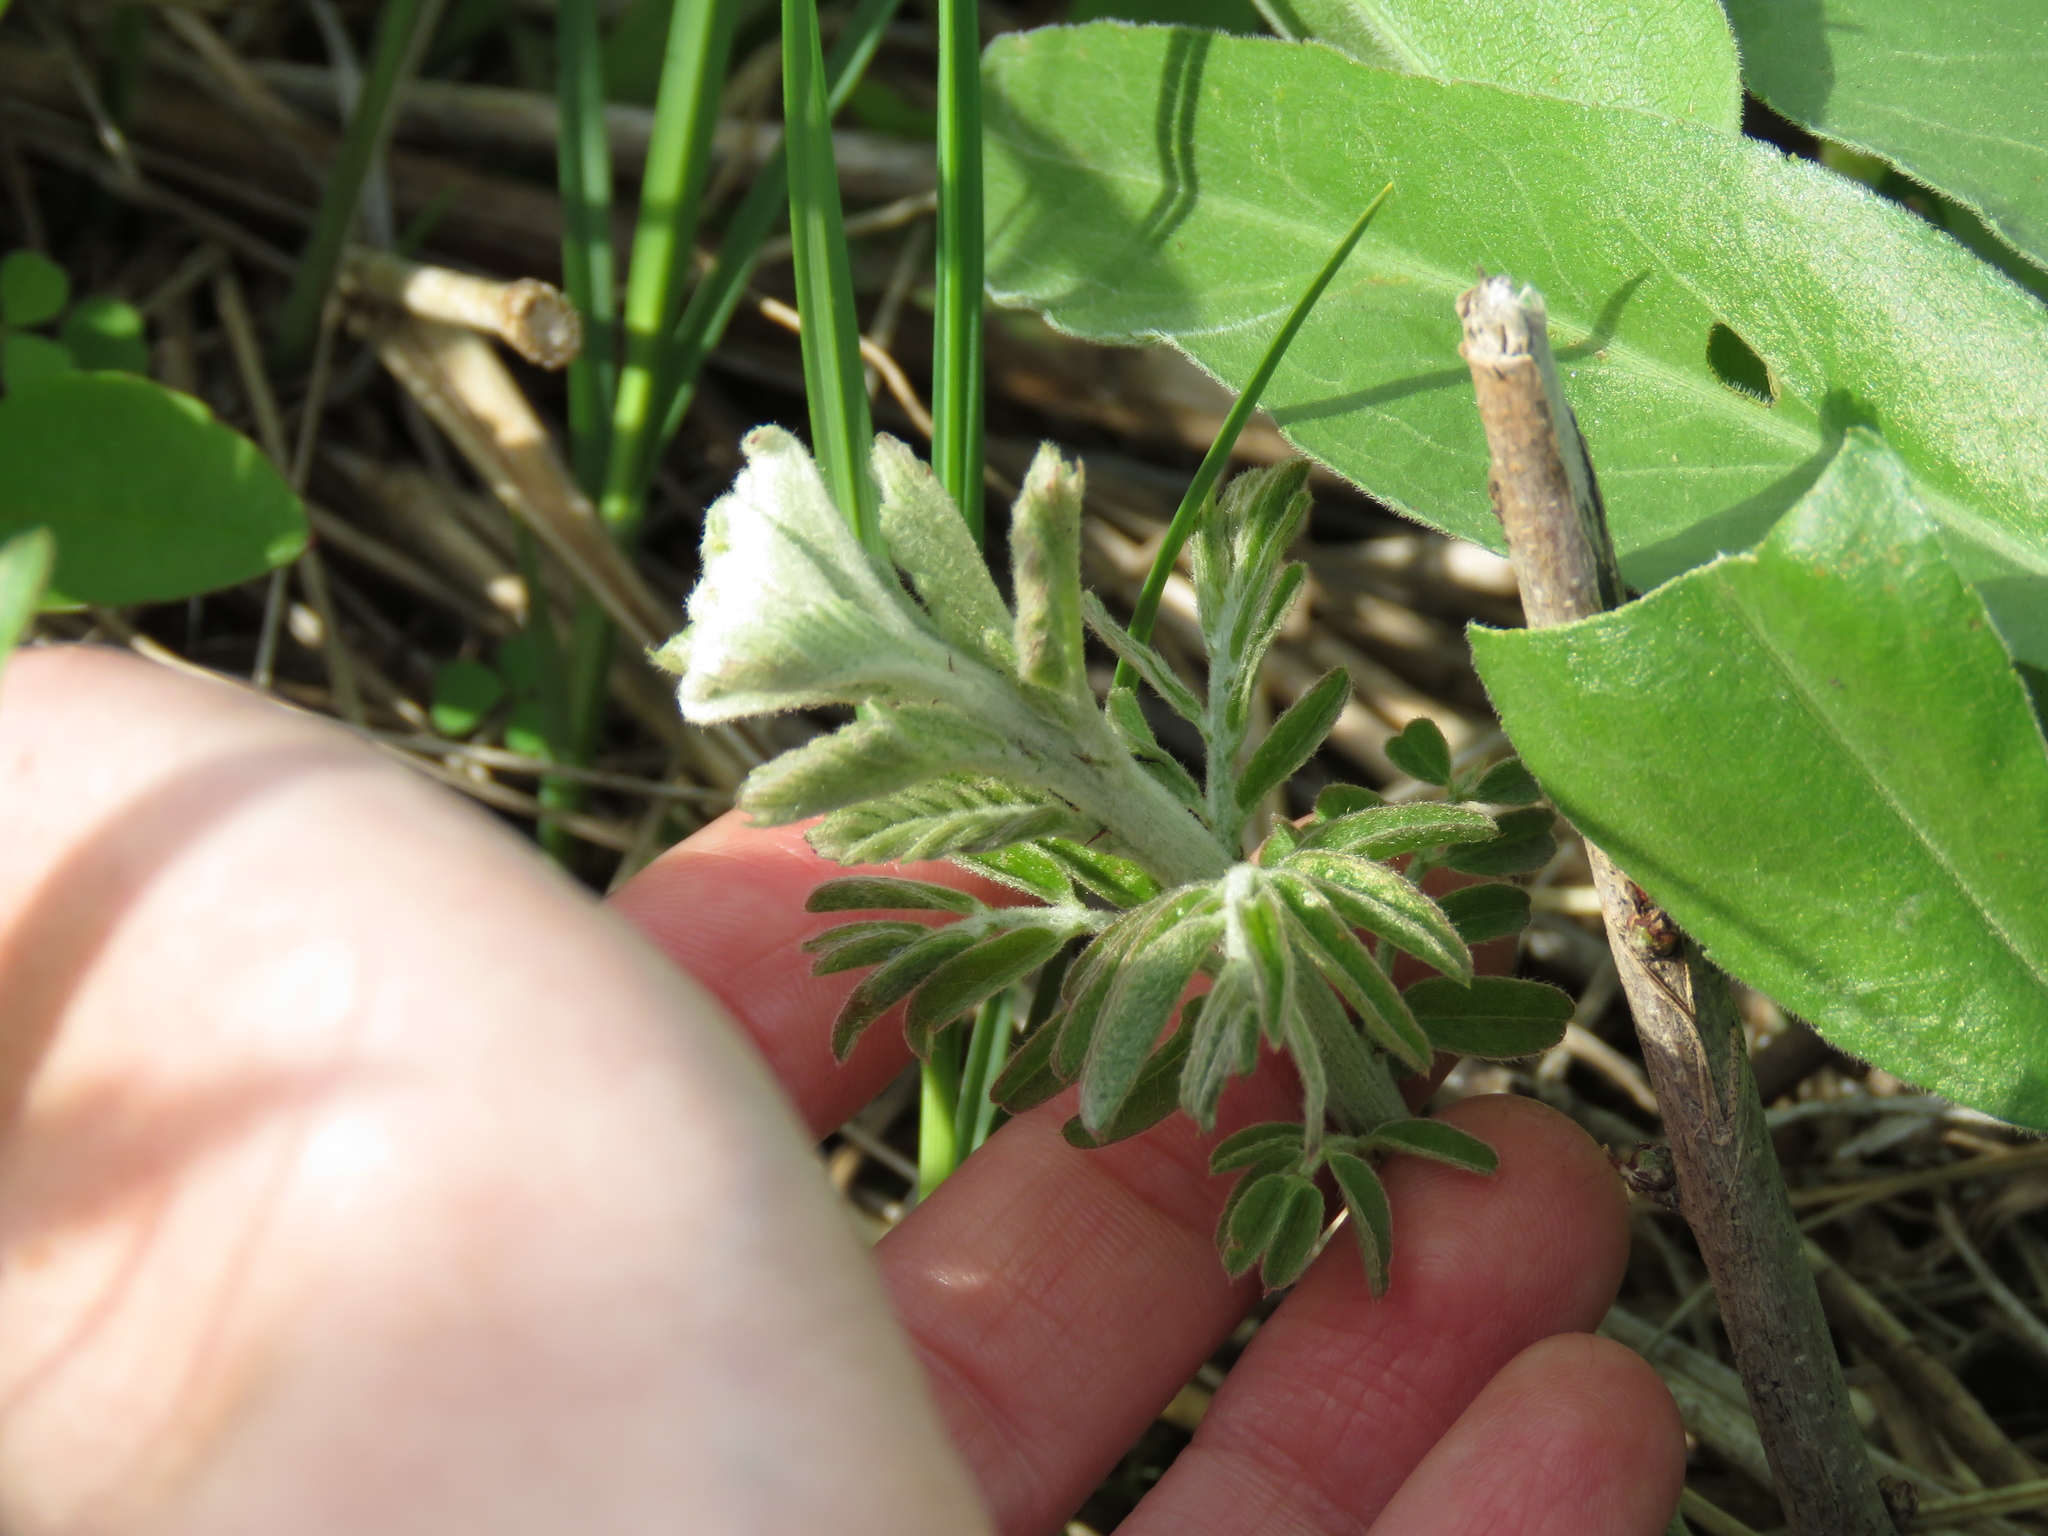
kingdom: Plantae
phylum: Tracheophyta
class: Magnoliopsida
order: Fabales
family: Fabaceae
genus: Amorpha
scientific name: Amorpha canescens
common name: Leadplant
